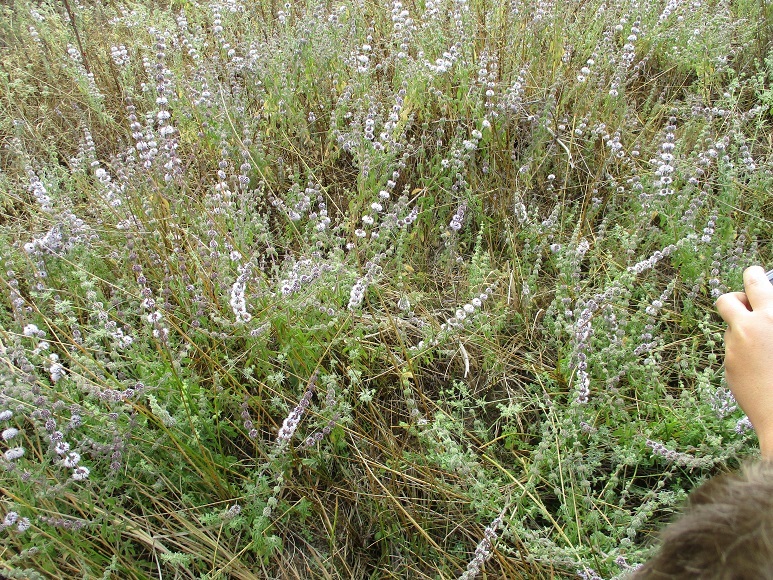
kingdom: Plantae
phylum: Tracheophyta
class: Magnoliopsida
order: Lamiales
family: Lamiaceae
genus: Mentha
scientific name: Mentha pulegium
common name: Pennyroyal
